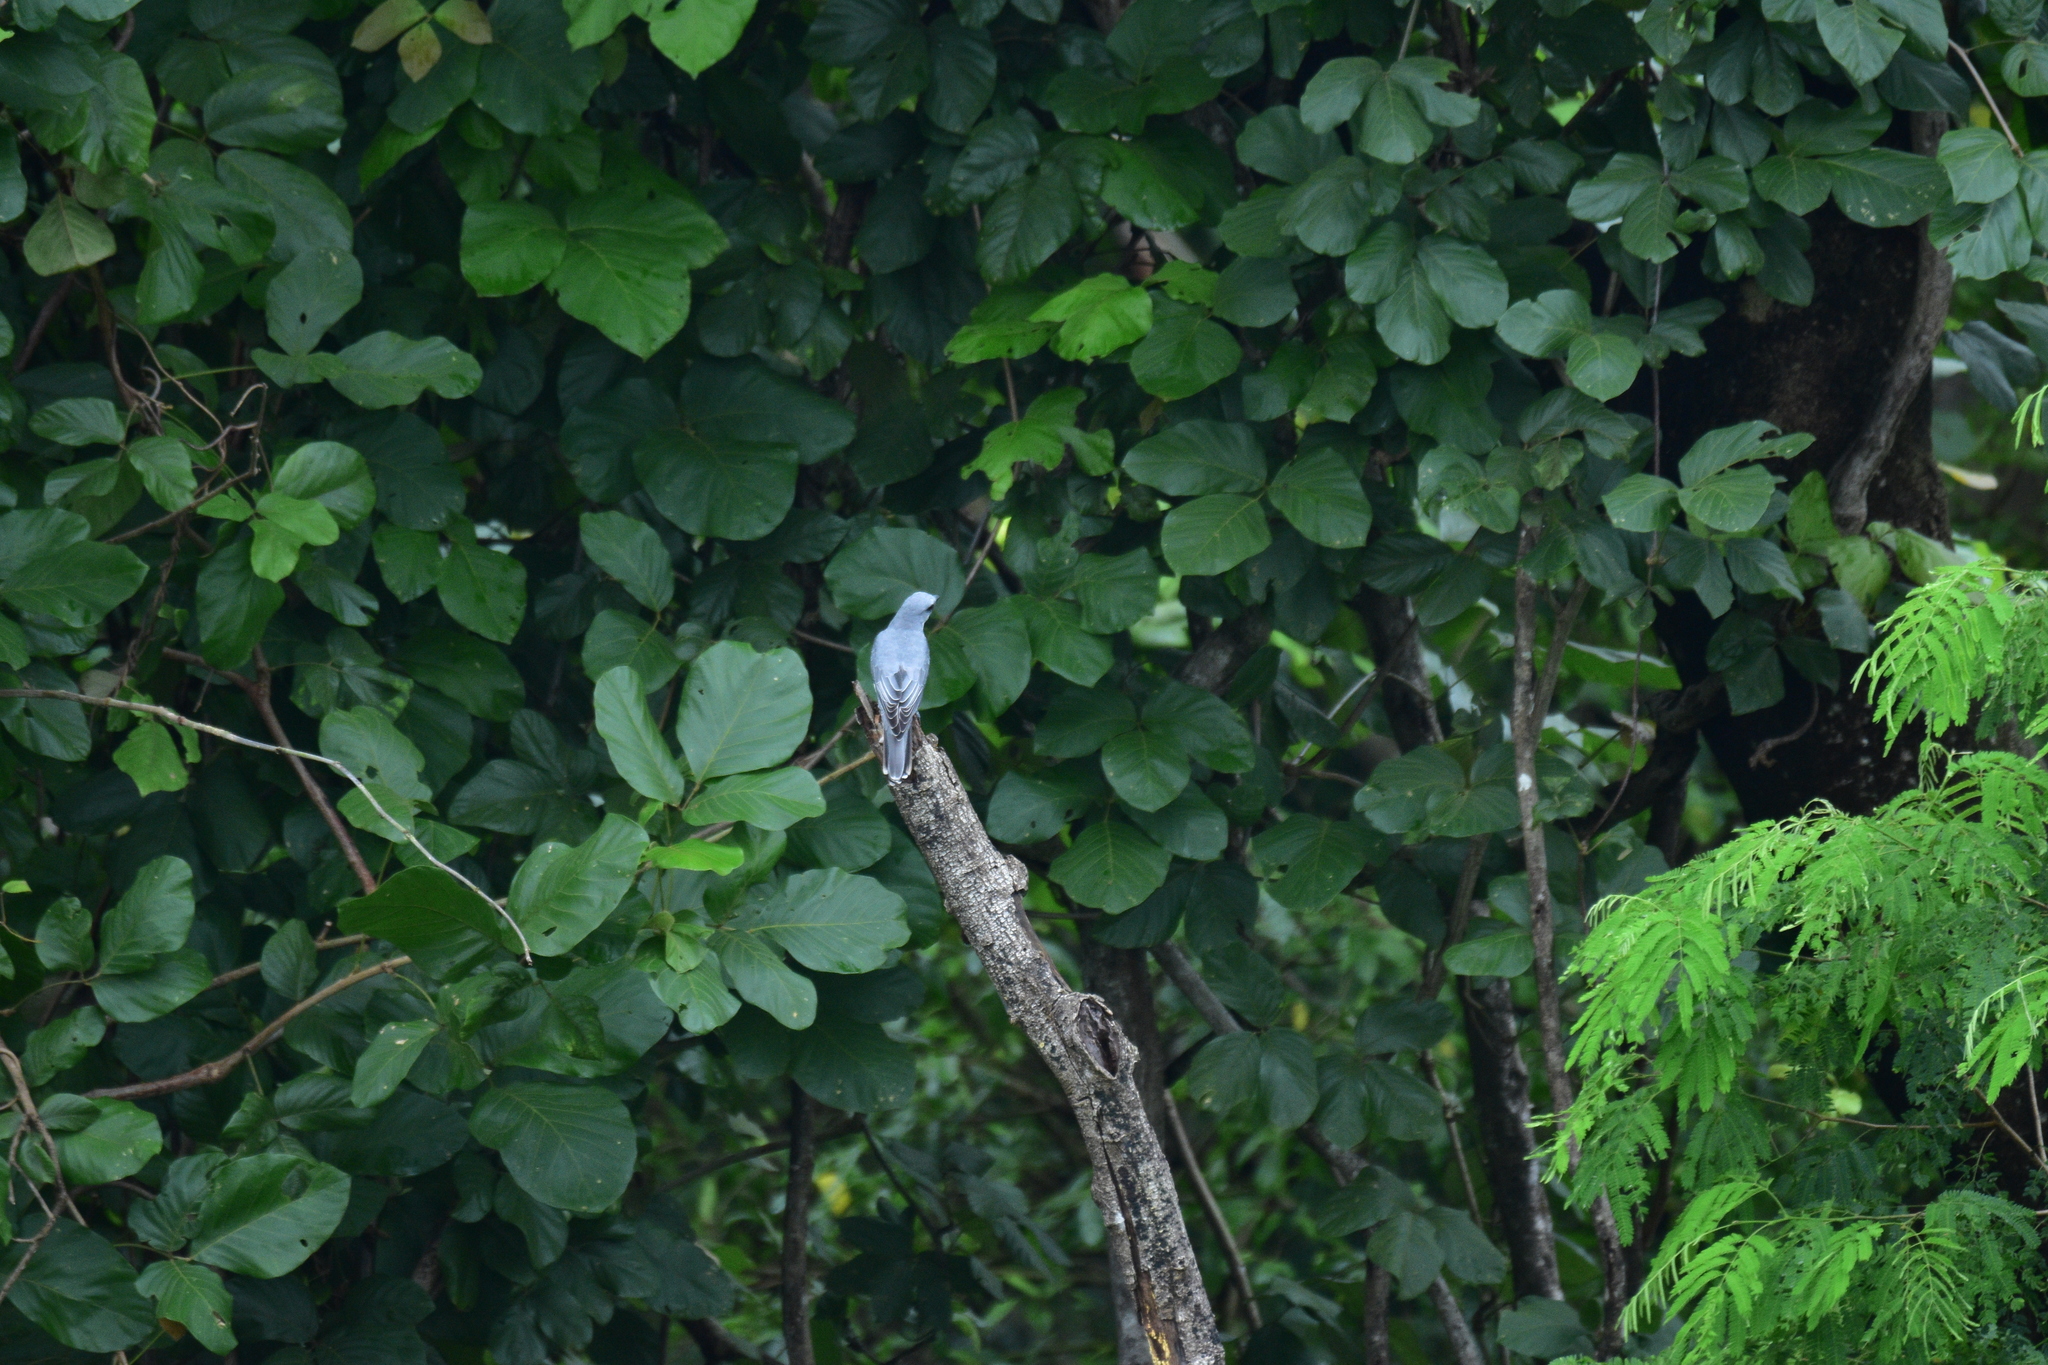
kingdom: Animalia
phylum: Chordata
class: Aves
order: Passeriformes
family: Campephagidae
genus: Coracina
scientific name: Coracina macei
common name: Large cuckooshrike
